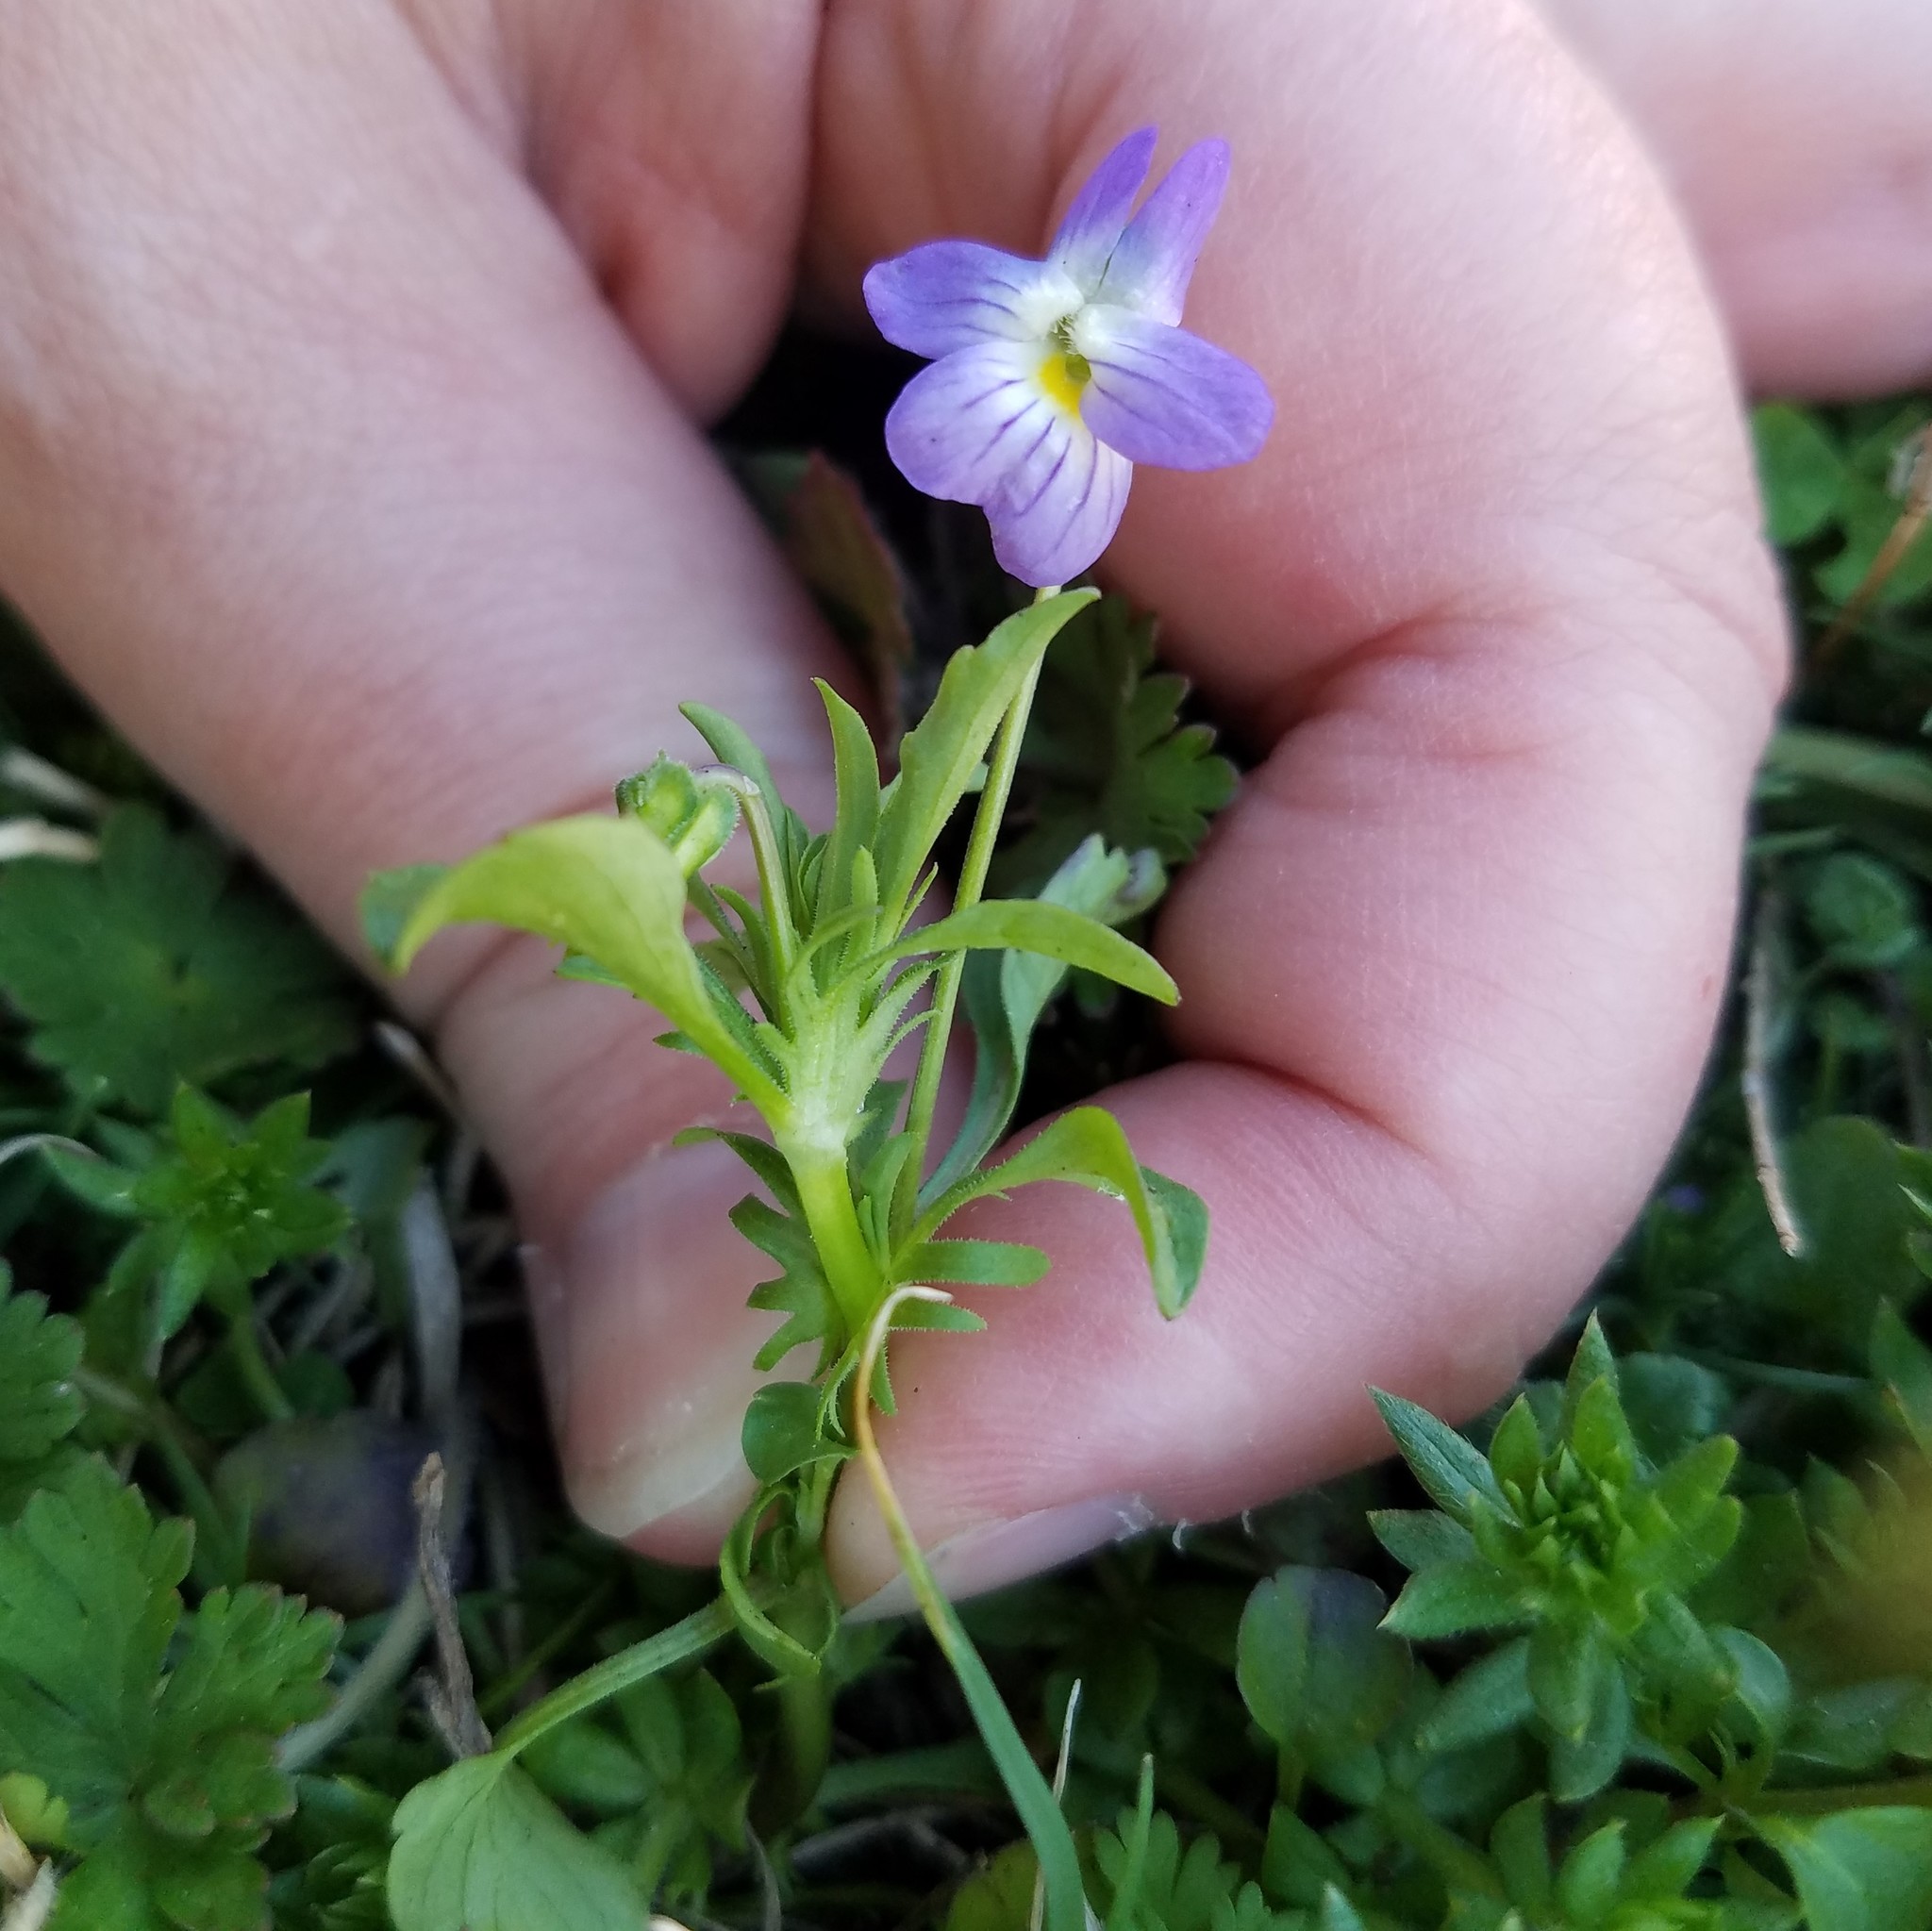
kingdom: Plantae
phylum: Tracheophyta
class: Magnoliopsida
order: Malpighiales
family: Violaceae
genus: Viola
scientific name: Viola rafinesquei
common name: American field pansy
